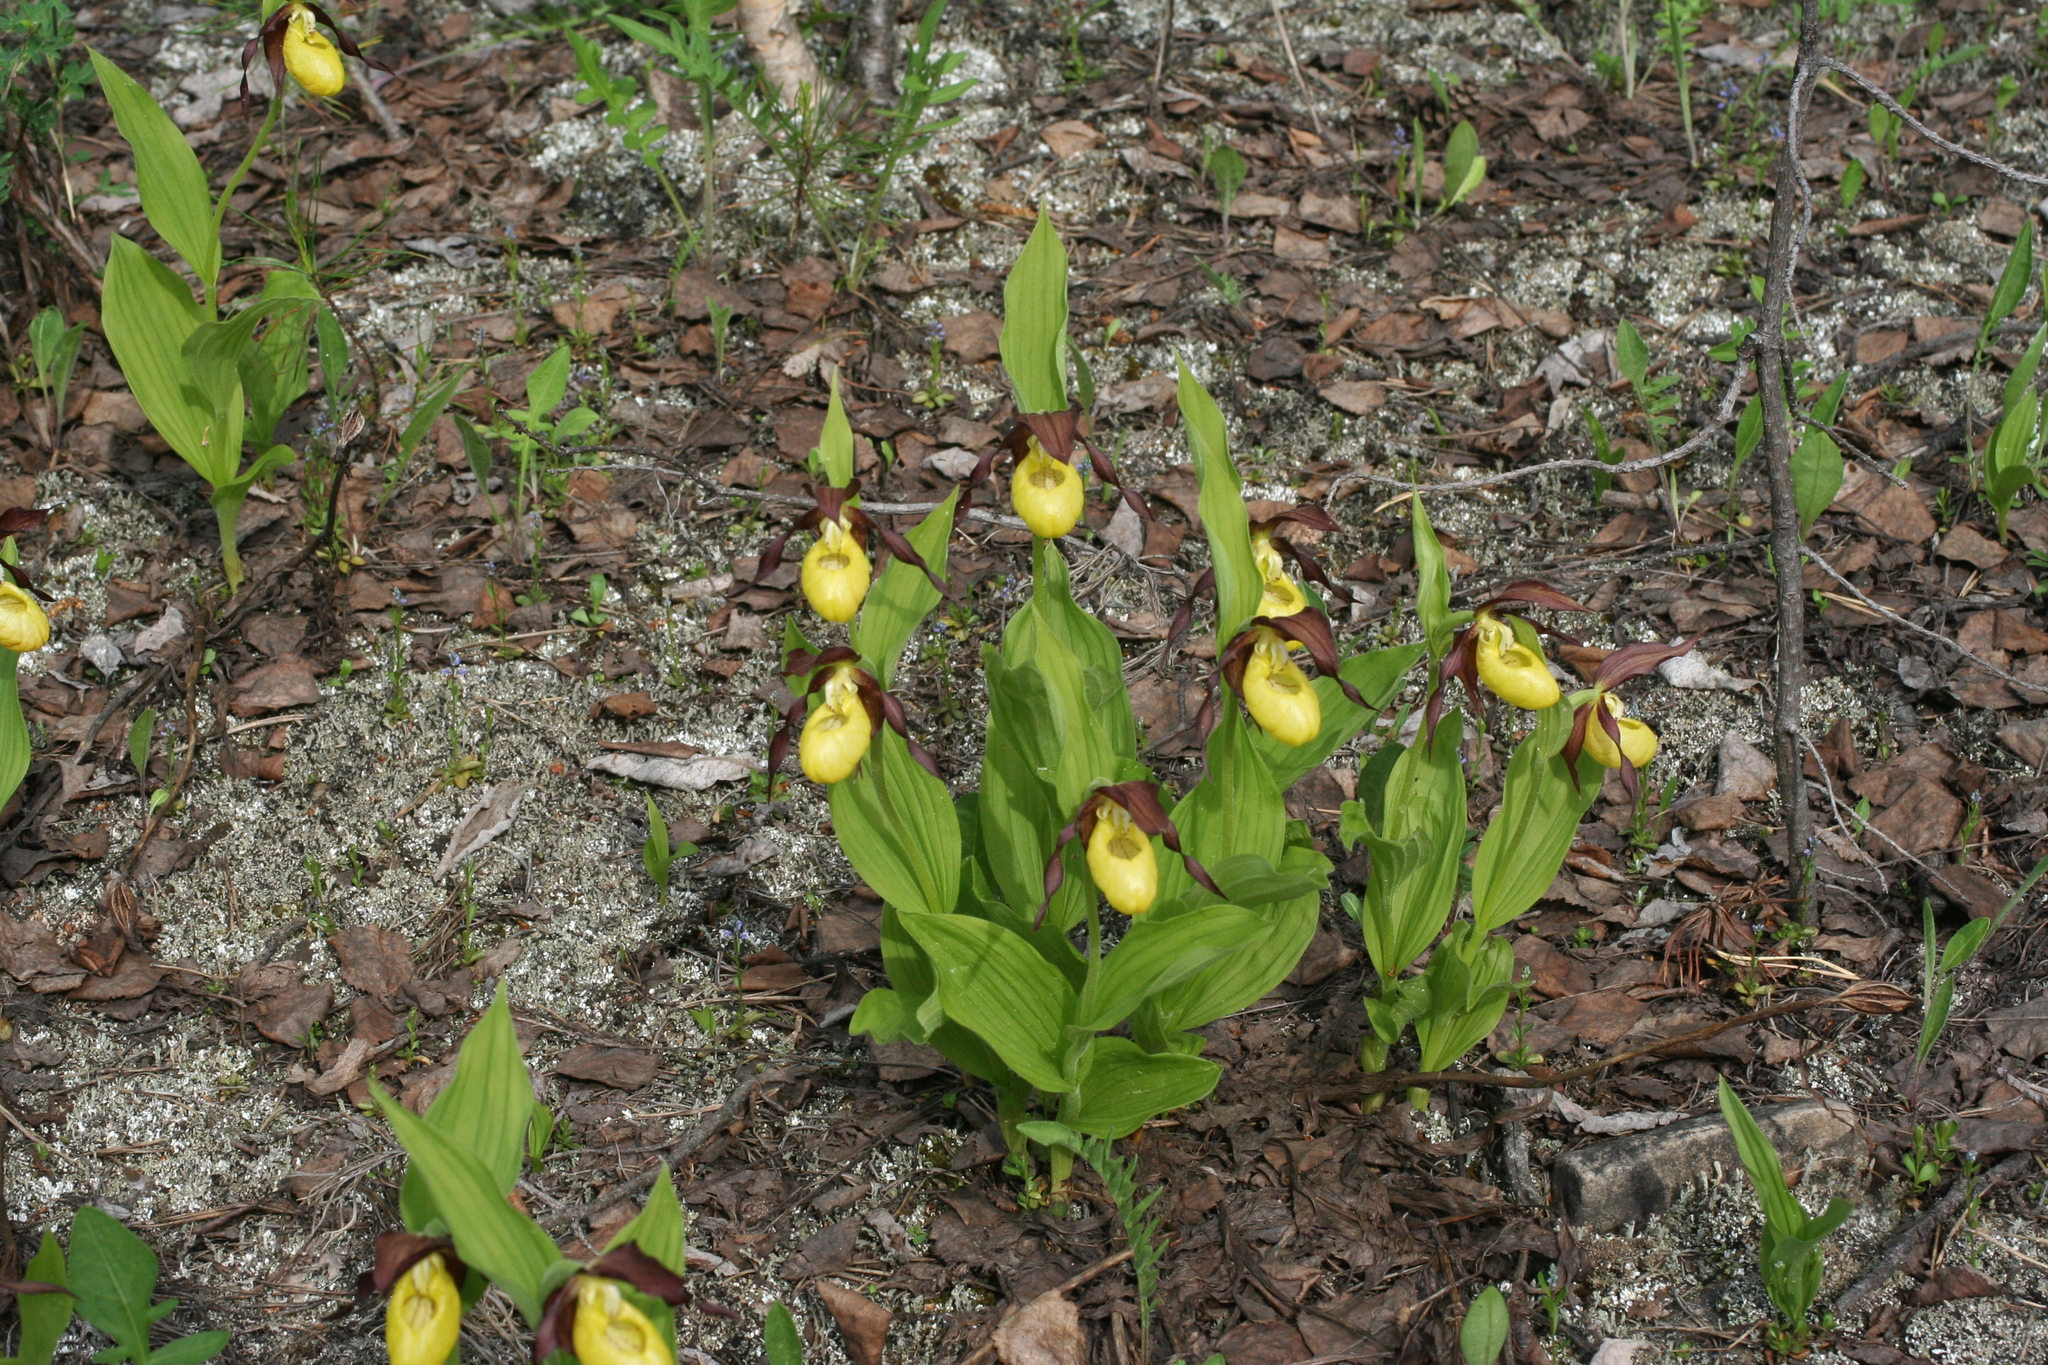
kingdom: Plantae
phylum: Tracheophyta
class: Liliopsida
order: Asparagales
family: Orchidaceae
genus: Cypripedium
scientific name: Cypripedium calceolus
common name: Lady's-slipper
